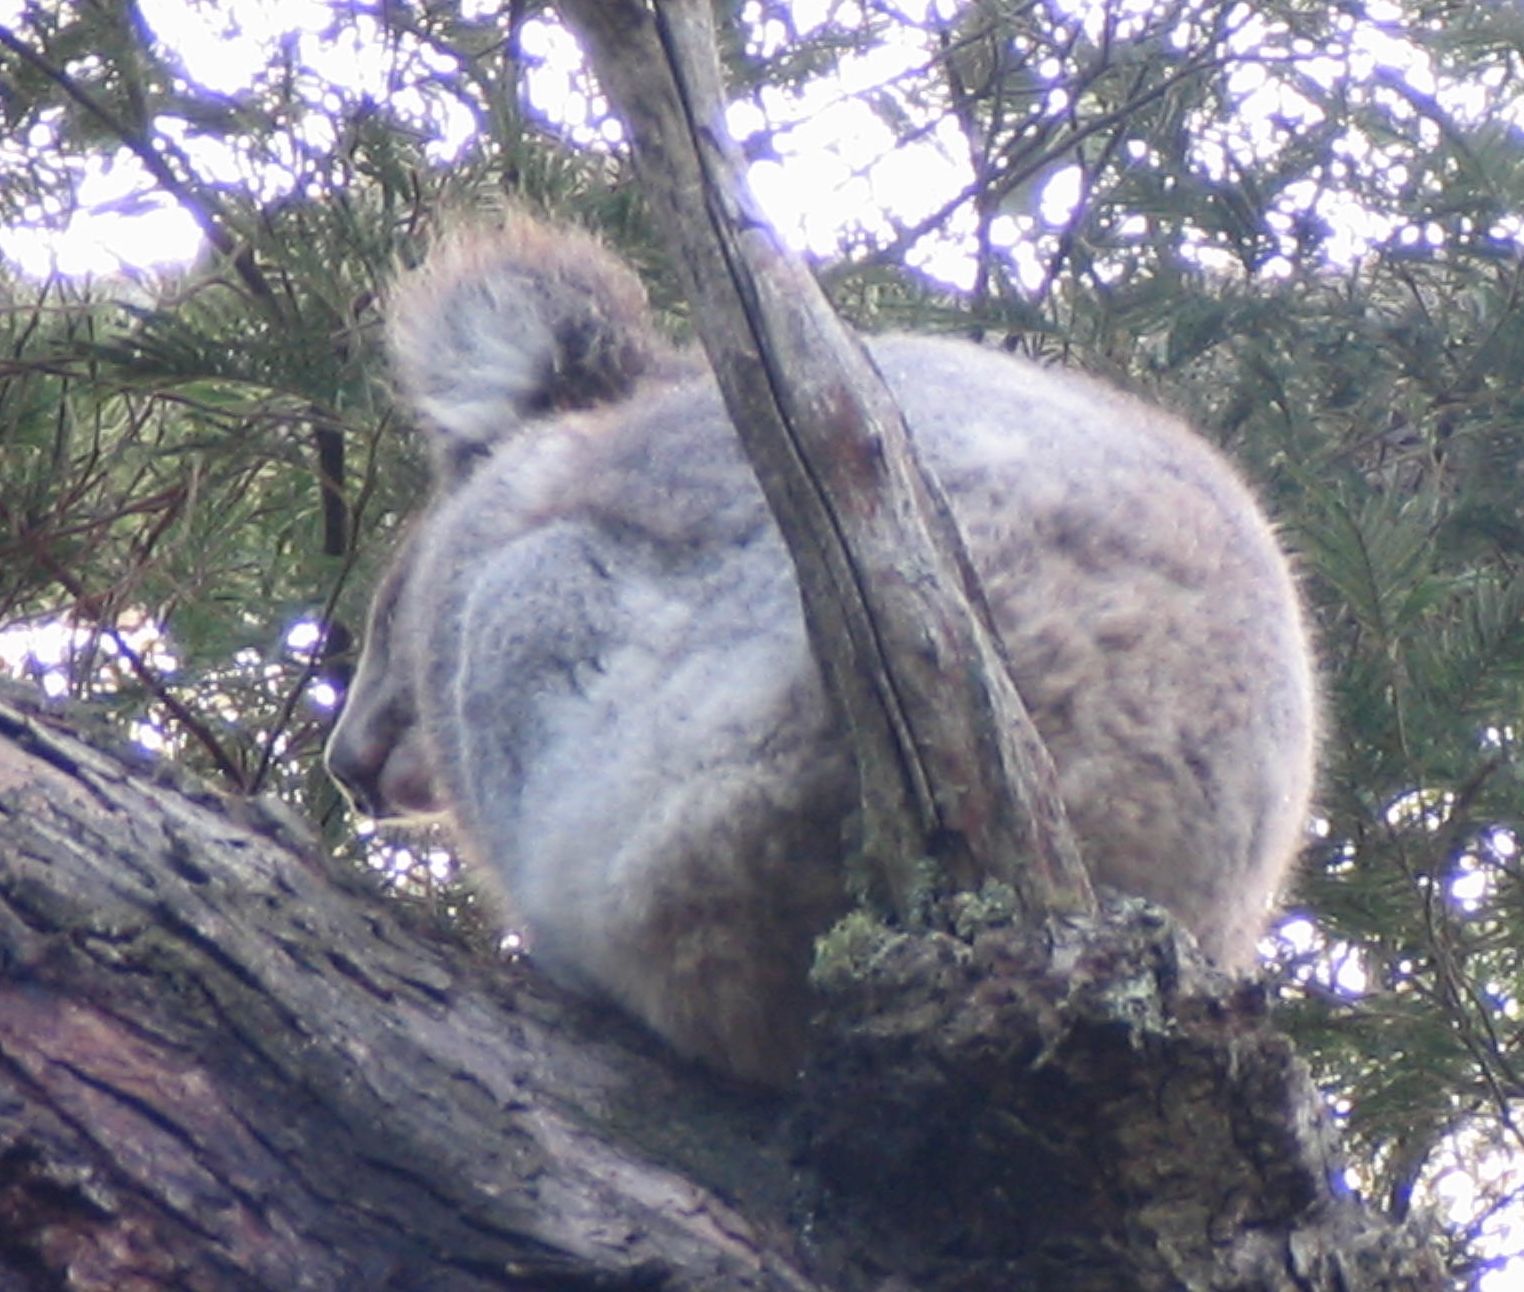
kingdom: Animalia
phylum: Chordata
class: Mammalia
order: Diprotodontia
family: Phascolarctidae
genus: Phascolarctos
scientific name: Phascolarctos cinereus
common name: Koala
